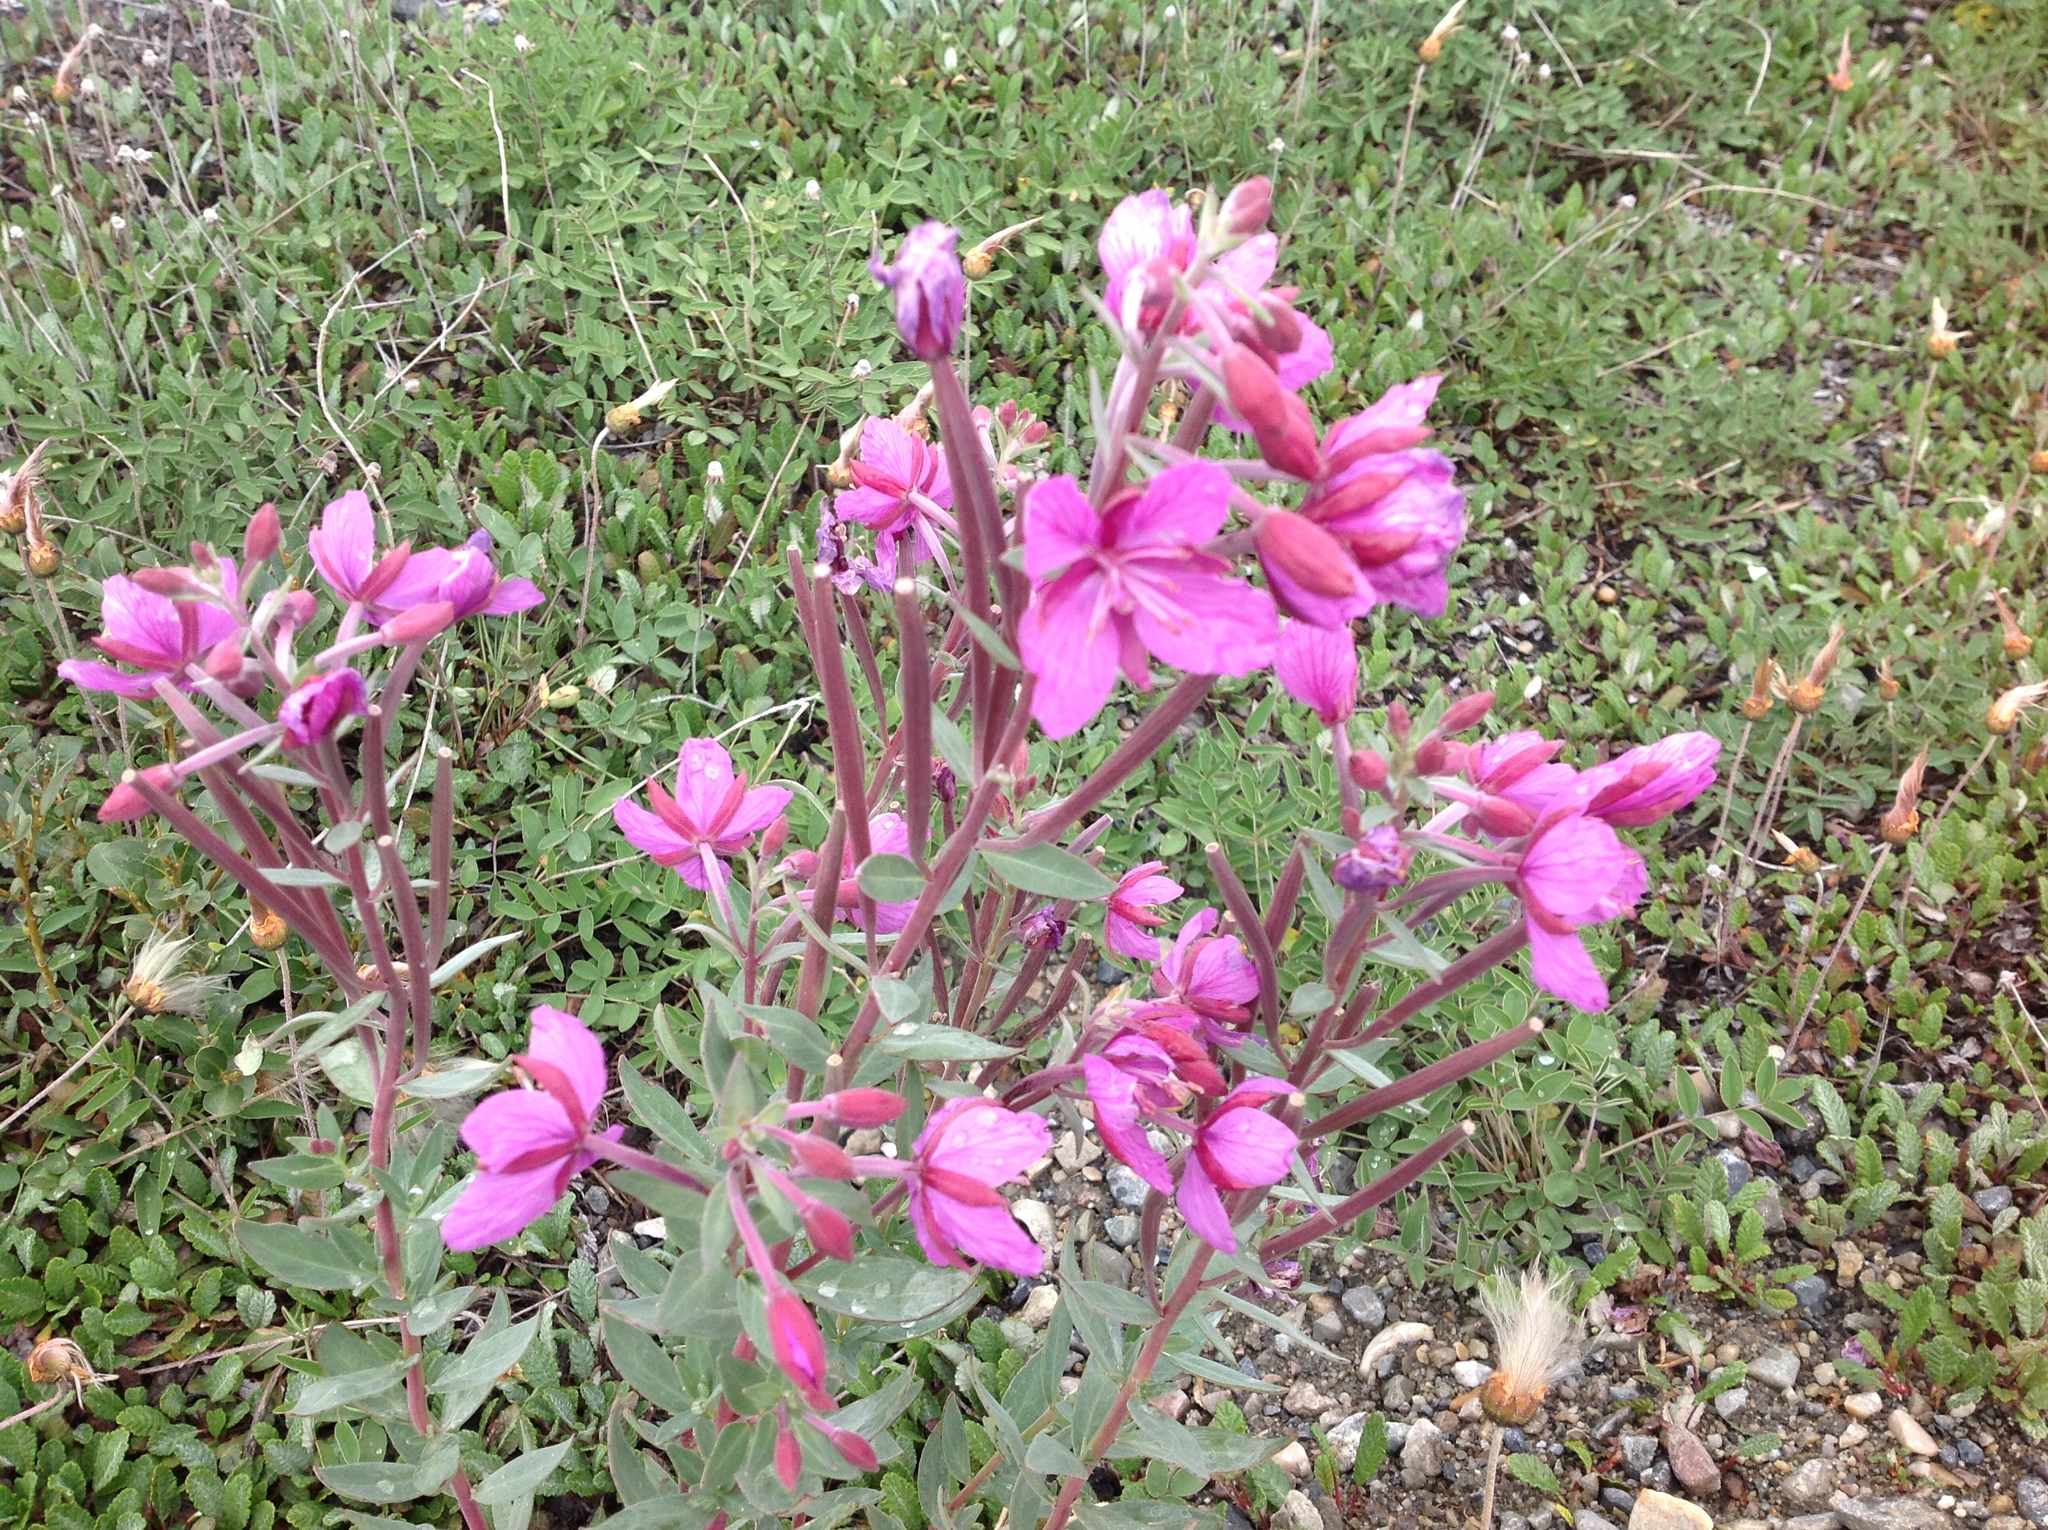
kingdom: Plantae
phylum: Tracheophyta
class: Magnoliopsida
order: Myrtales
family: Onagraceae
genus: Chamaenerion
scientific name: Chamaenerion latifolium
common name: Dwarf fireweed
